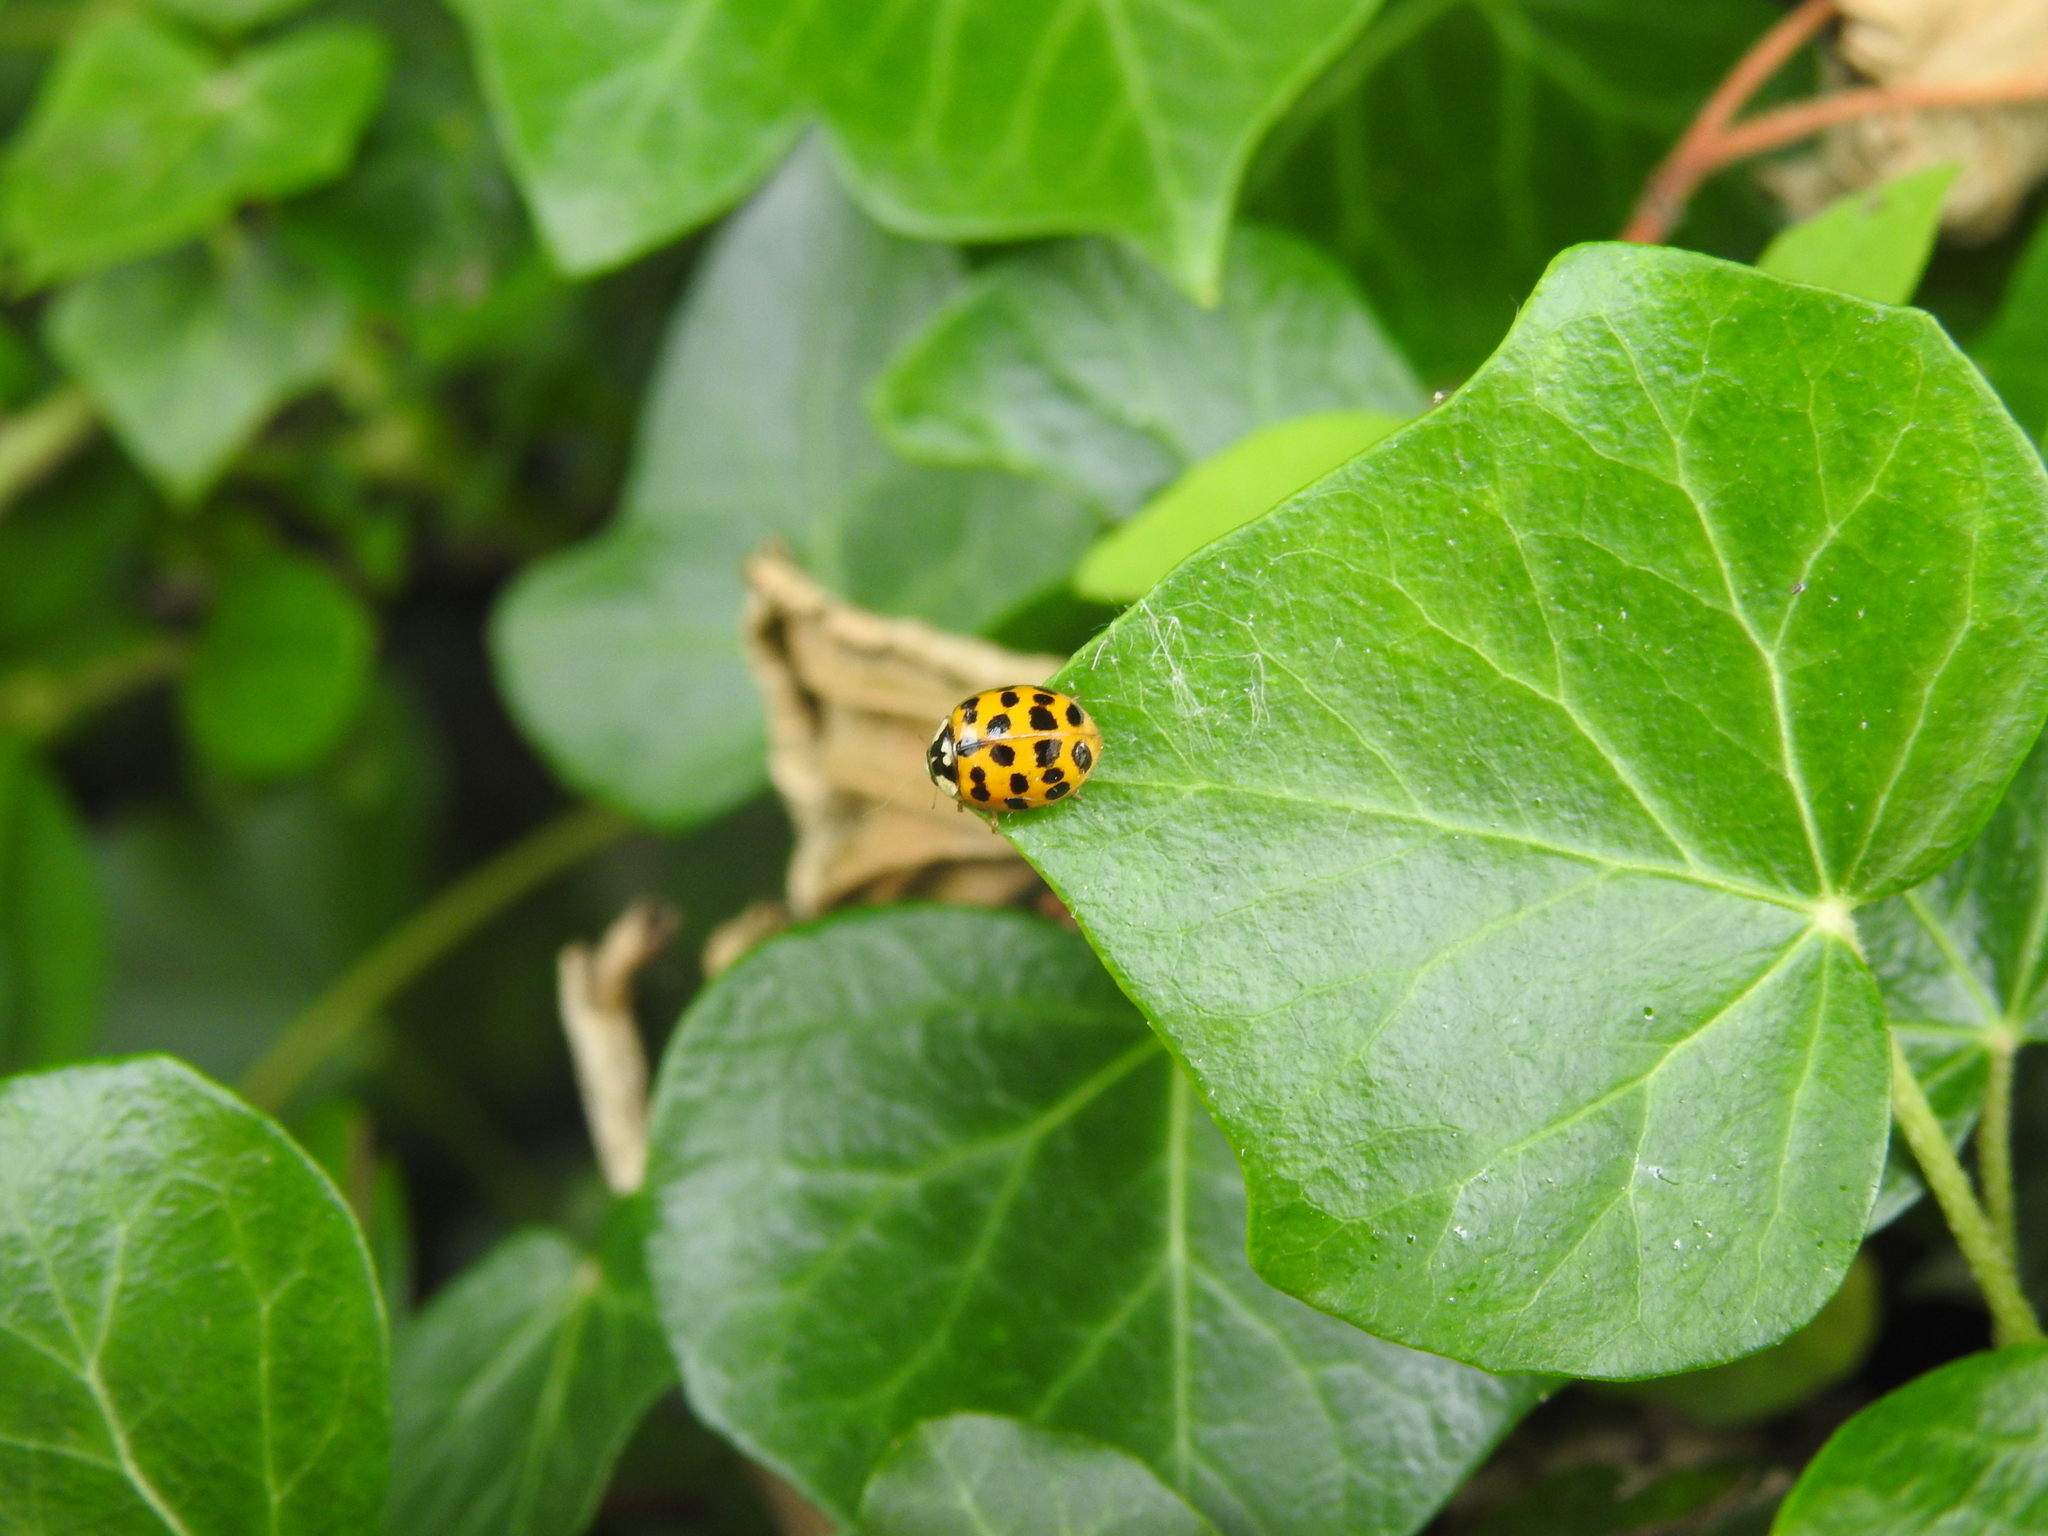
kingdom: Animalia
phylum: Arthropoda
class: Insecta
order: Coleoptera
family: Coccinellidae
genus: Harmonia
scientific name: Harmonia axyridis
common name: Harlequin ladybird
